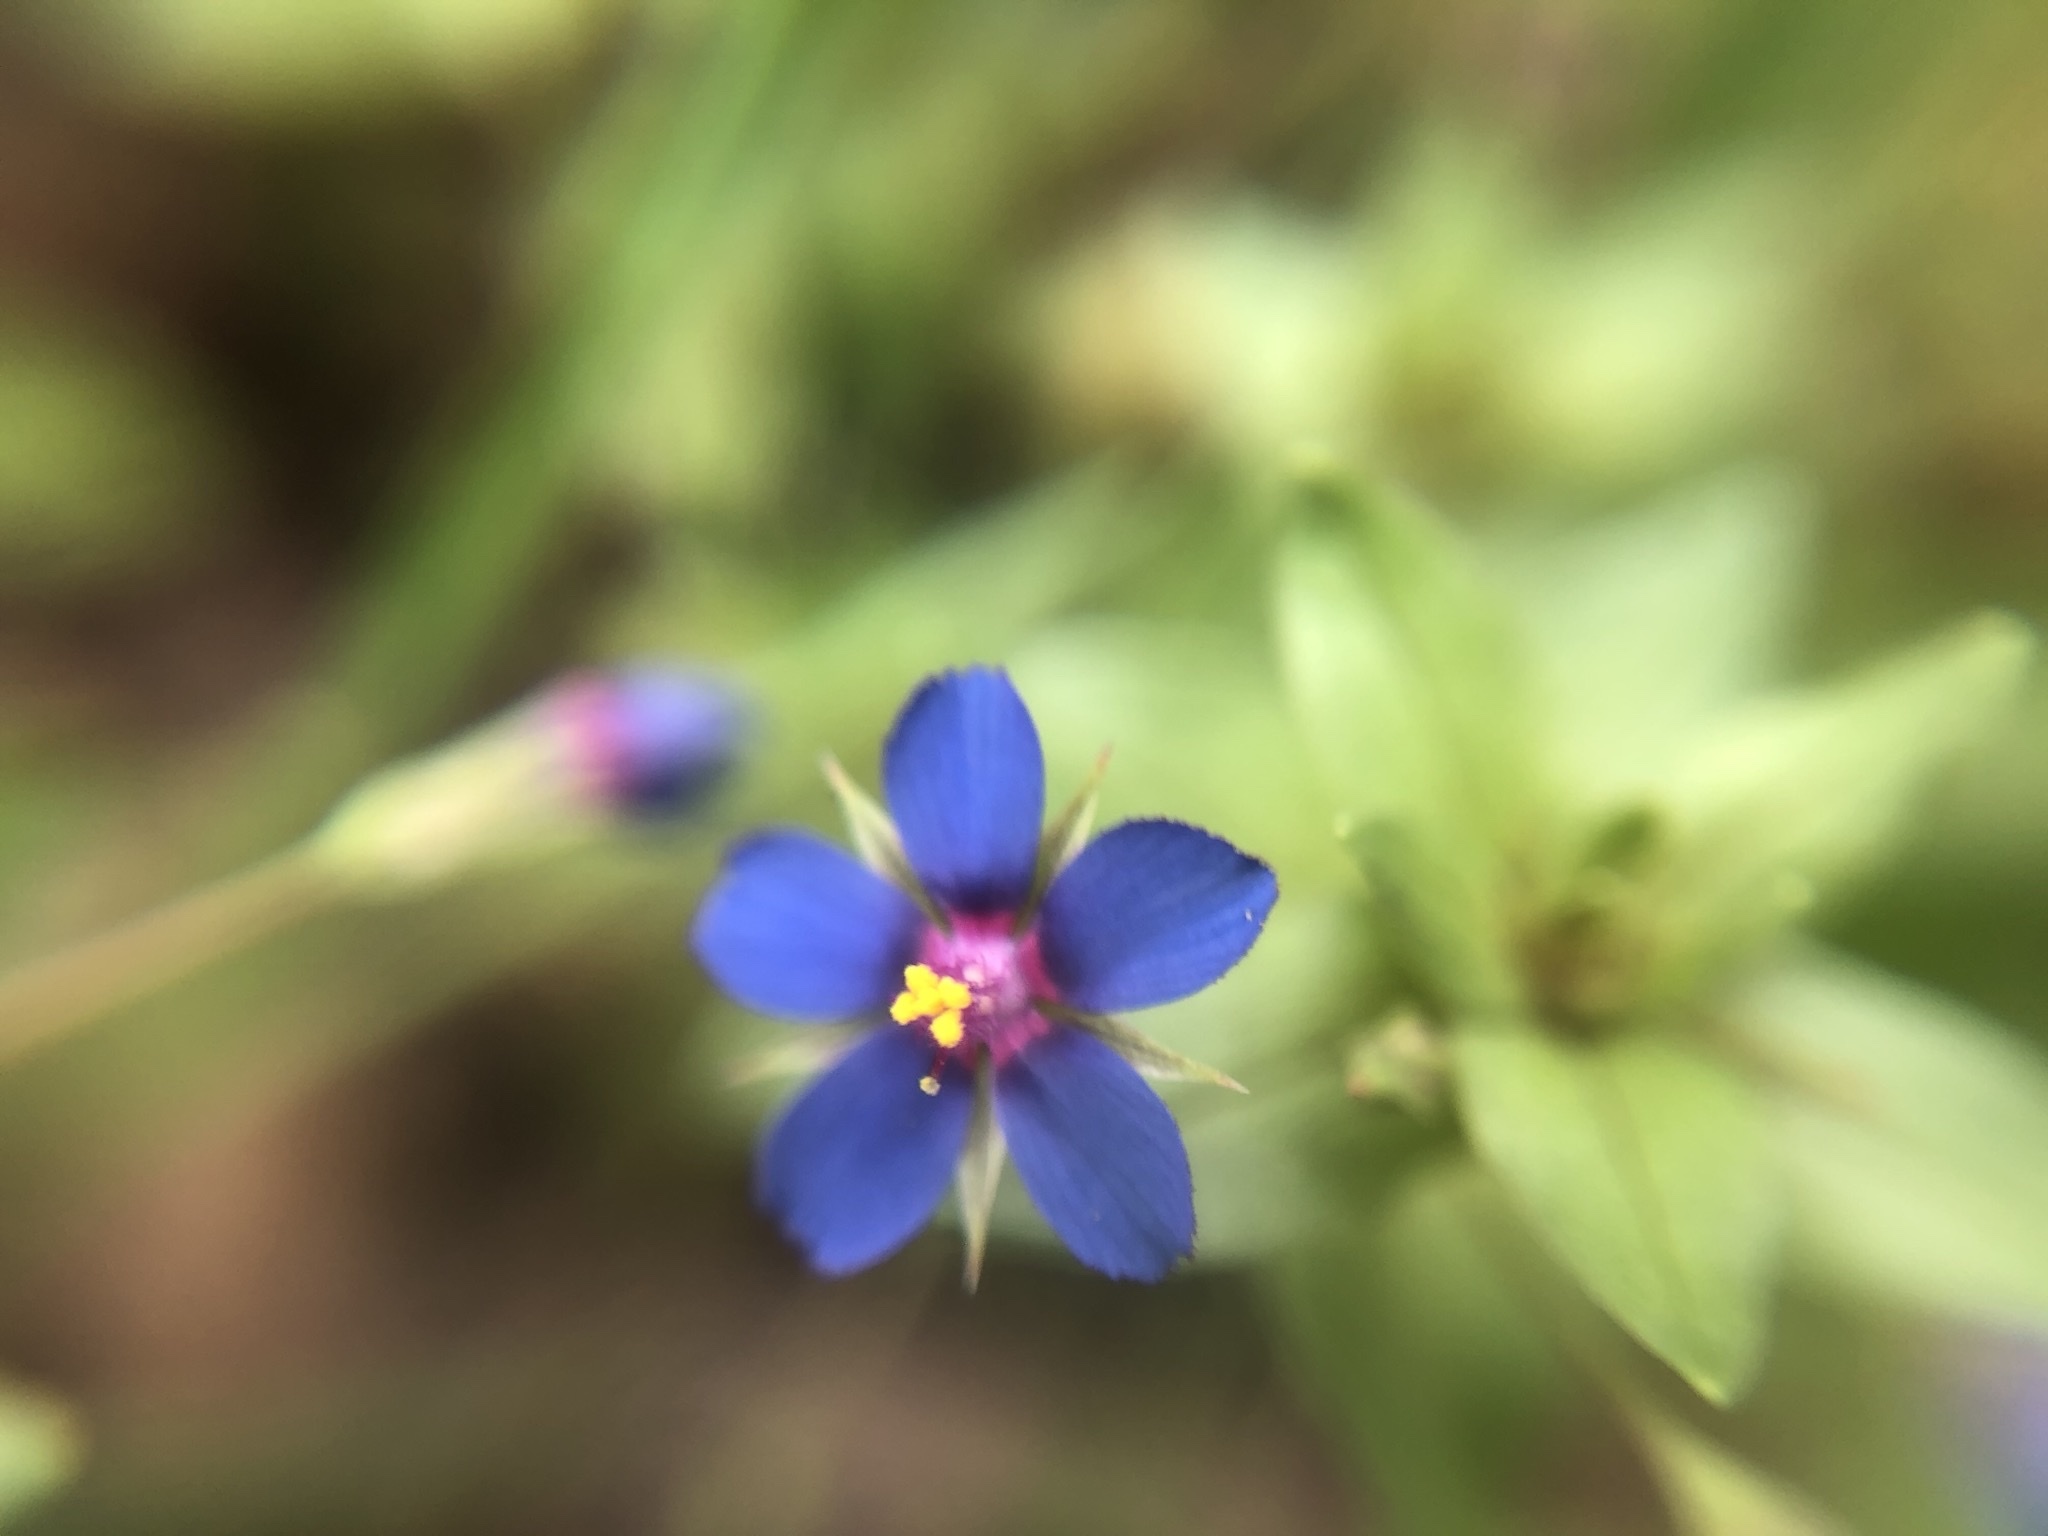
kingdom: Plantae
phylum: Tracheophyta
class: Magnoliopsida
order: Ericales
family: Primulaceae
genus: Lysimachia
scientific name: Lysimachia loeflingii
